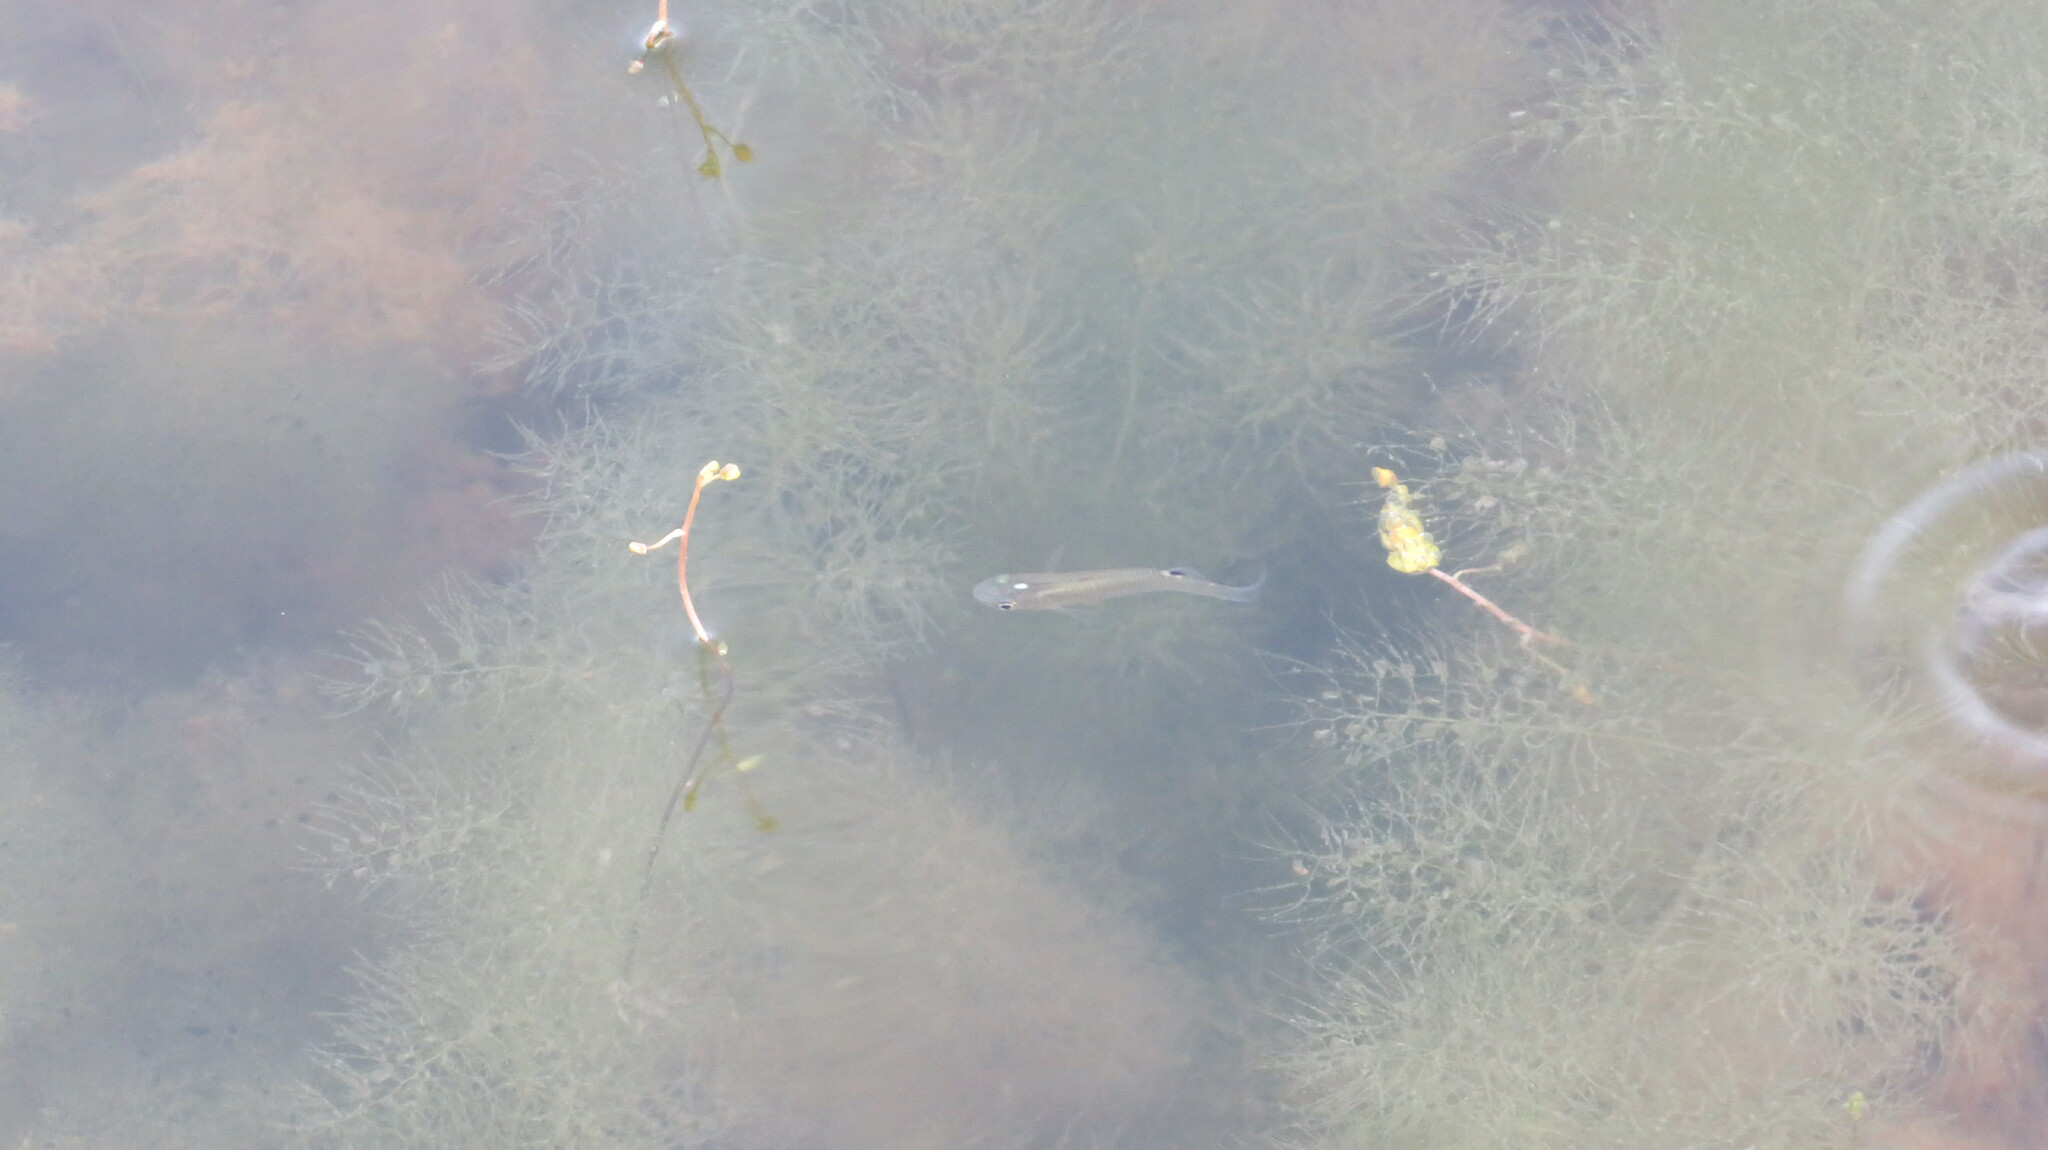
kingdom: Animalia
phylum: Chordata
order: Cyprinodontiformes
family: Aplocheilidae
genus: Aplocheilus
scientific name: Aplocheilus panchax
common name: Blue panchax
